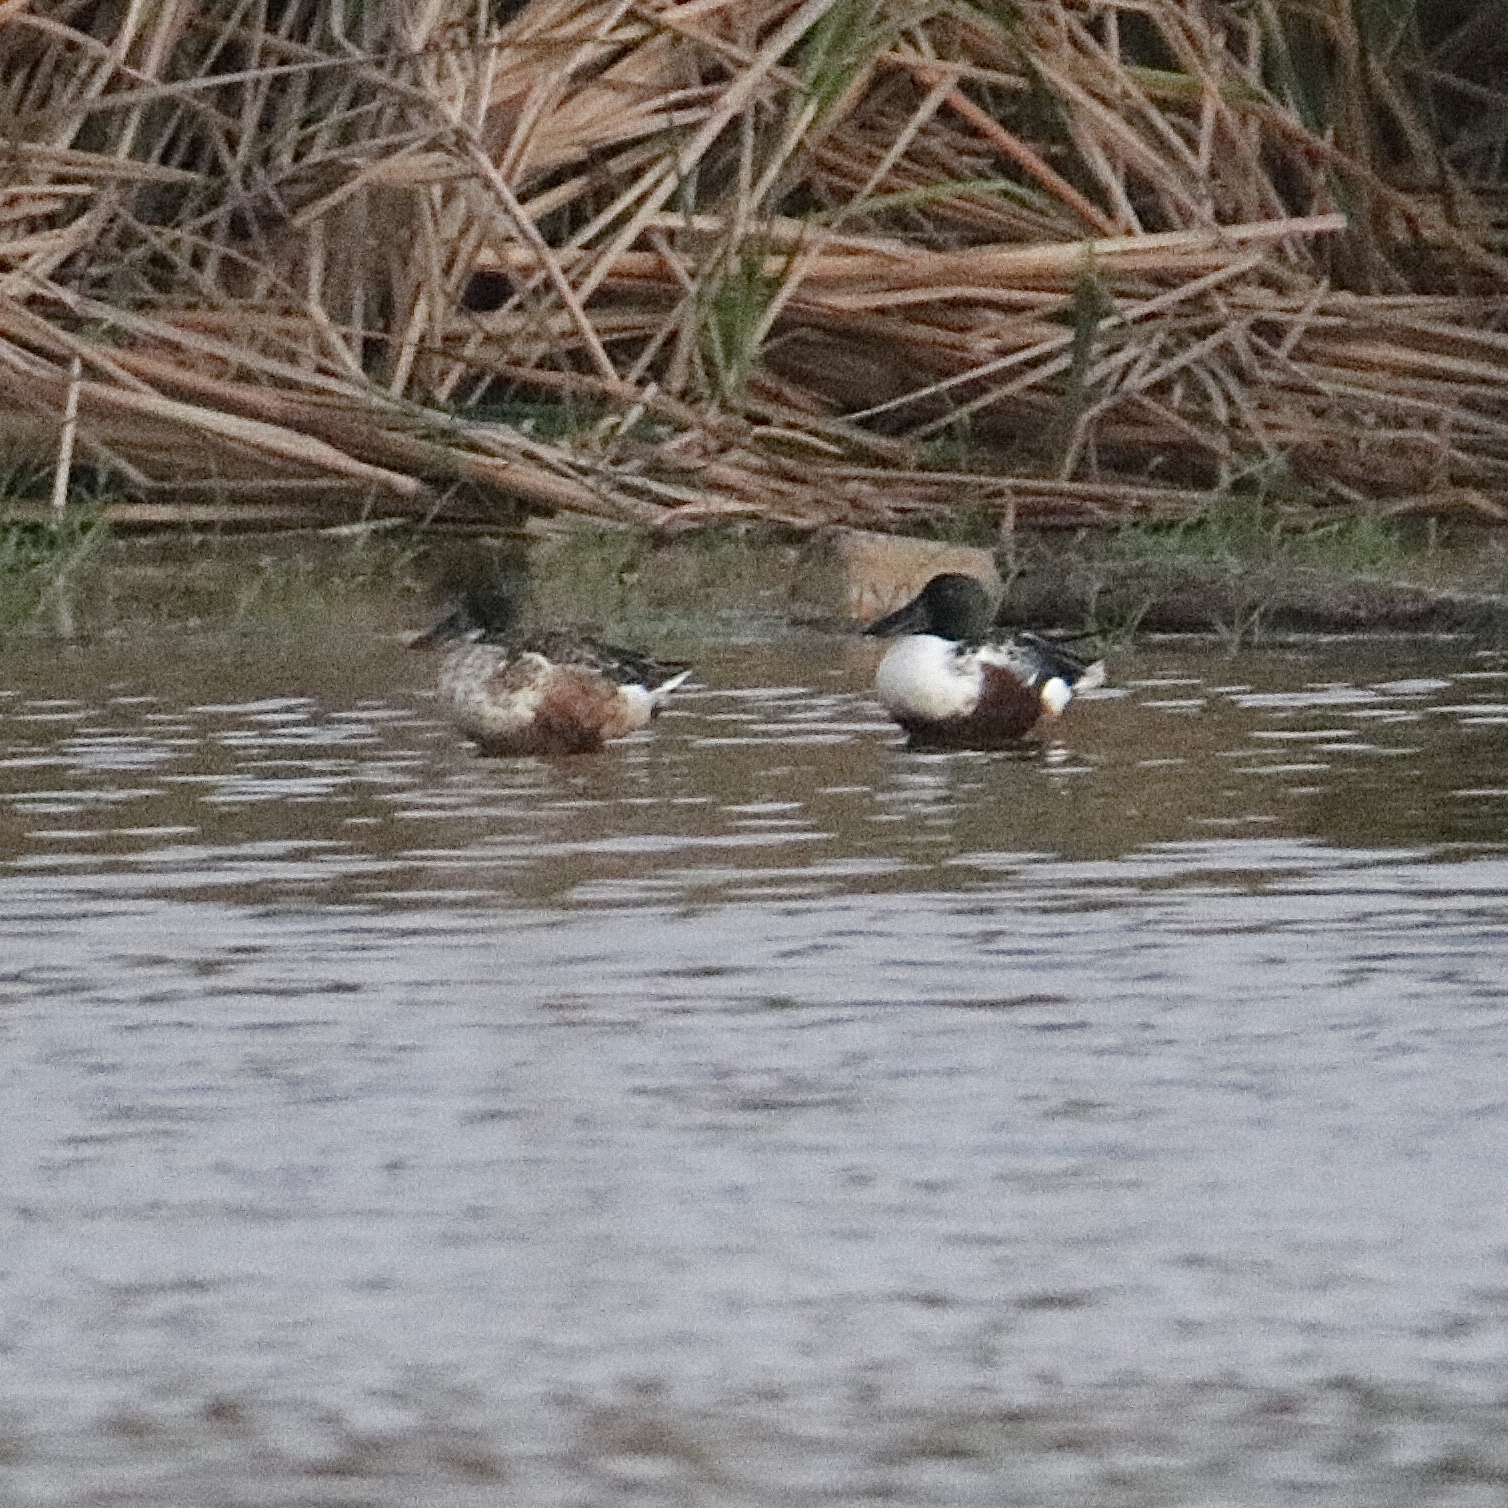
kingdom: Animalia
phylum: Chordata
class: Aves
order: Anseriformes
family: Anatidae
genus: Spatula
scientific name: Spatula clypeata
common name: Northern shoveler
